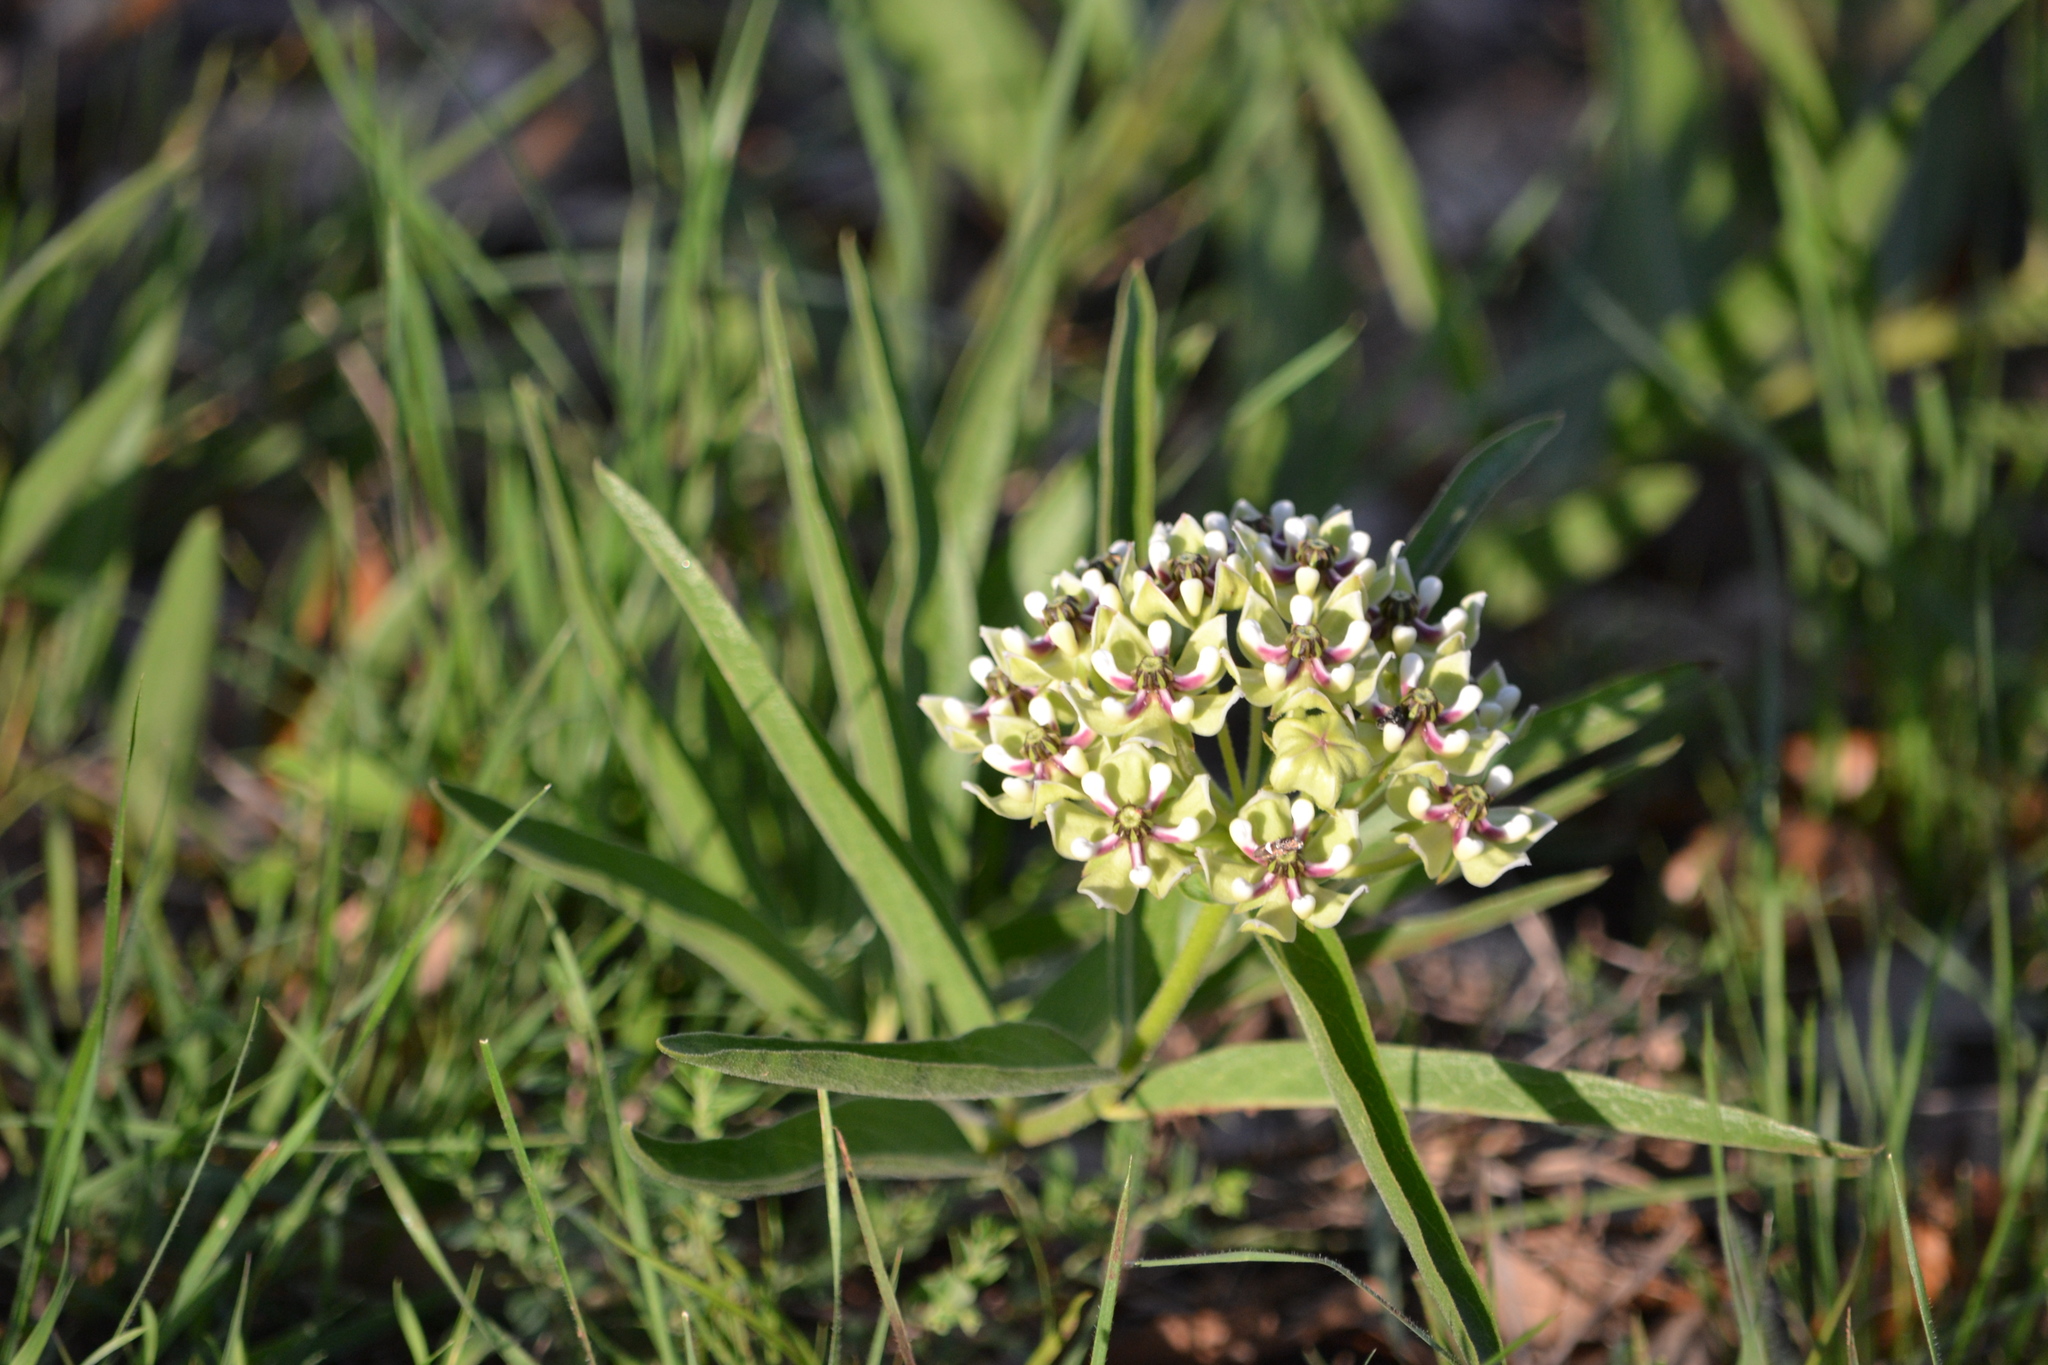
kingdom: Plantae
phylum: Tracheophyta
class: Magnoliopsida
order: Gentianales
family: Apocynaceae
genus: Asclepias
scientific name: Asclepias asperula
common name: Antelope horns
